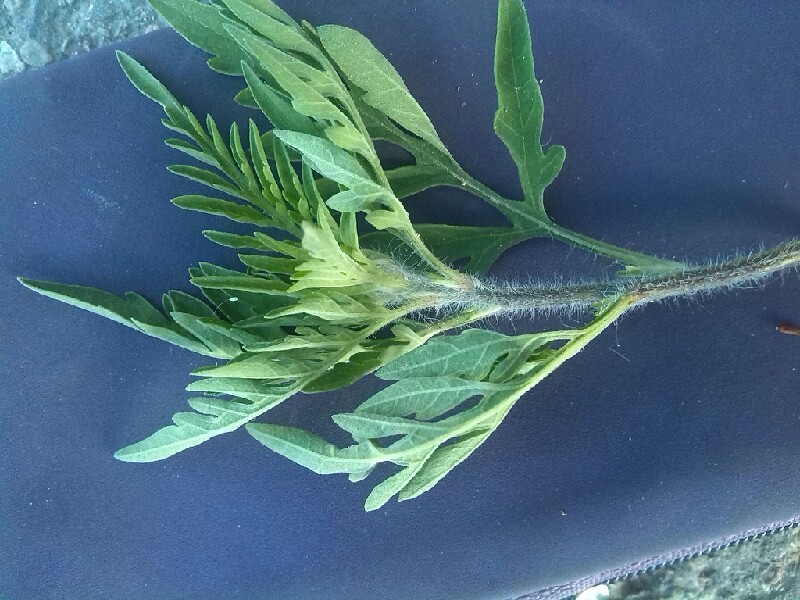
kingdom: Plantae
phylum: Tracheophyta
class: Magnoliopsida
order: Asterales
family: Asteraceae
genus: Ambrosia
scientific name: Ambrosia artemisiifolia
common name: Annual ragweed
